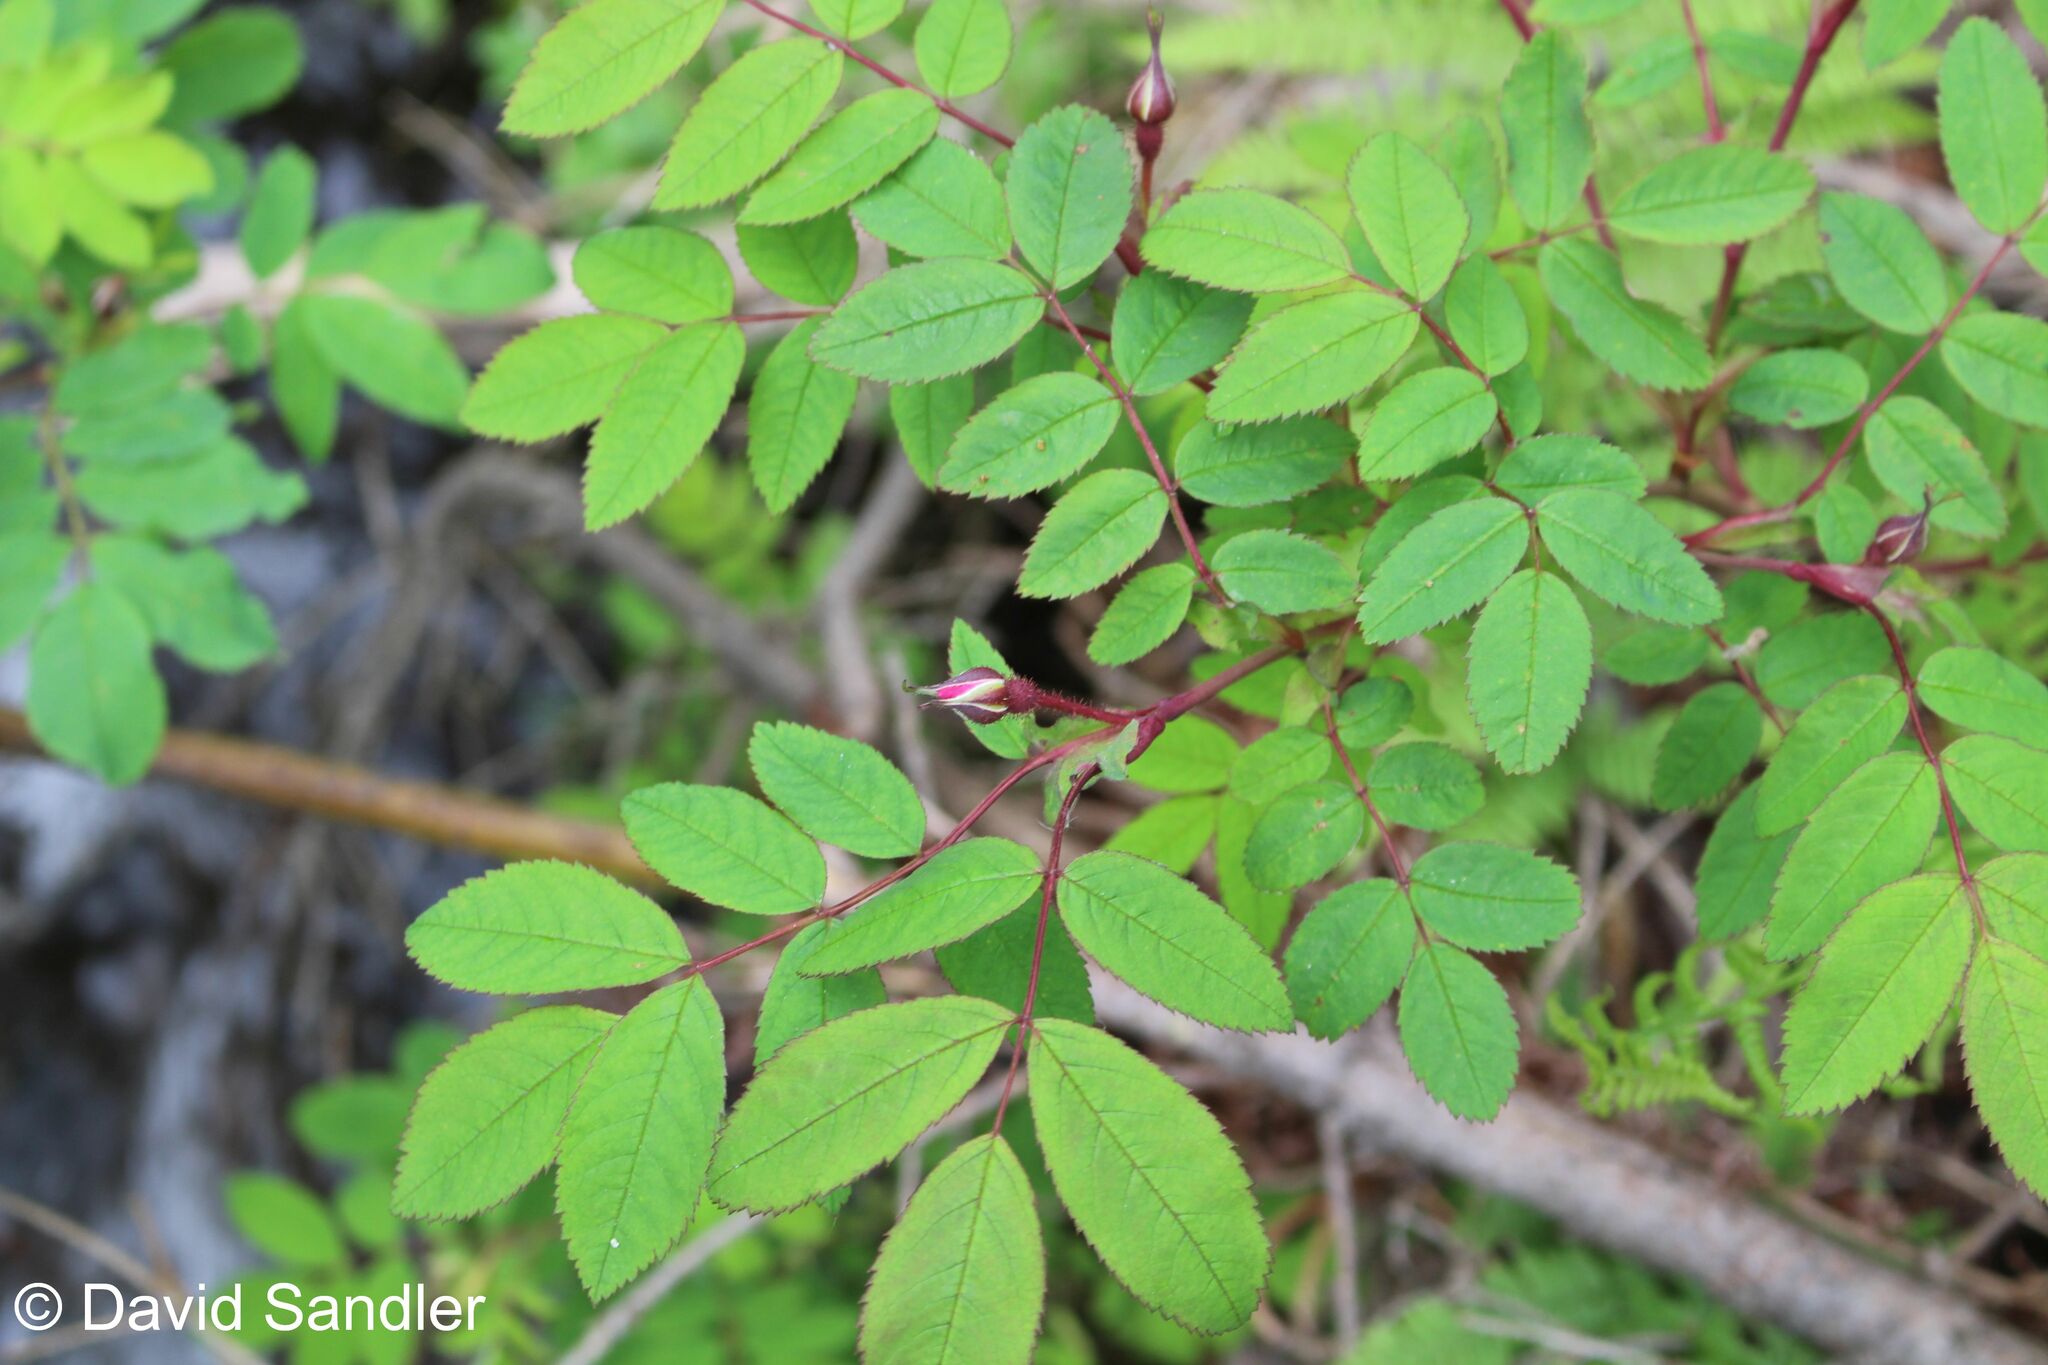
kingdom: Plantae
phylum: Tracheophyta
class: Magnoliopsida
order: Rosales
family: Rosaceae
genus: Rosa
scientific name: Rosa pendulina
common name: Alpine rose
